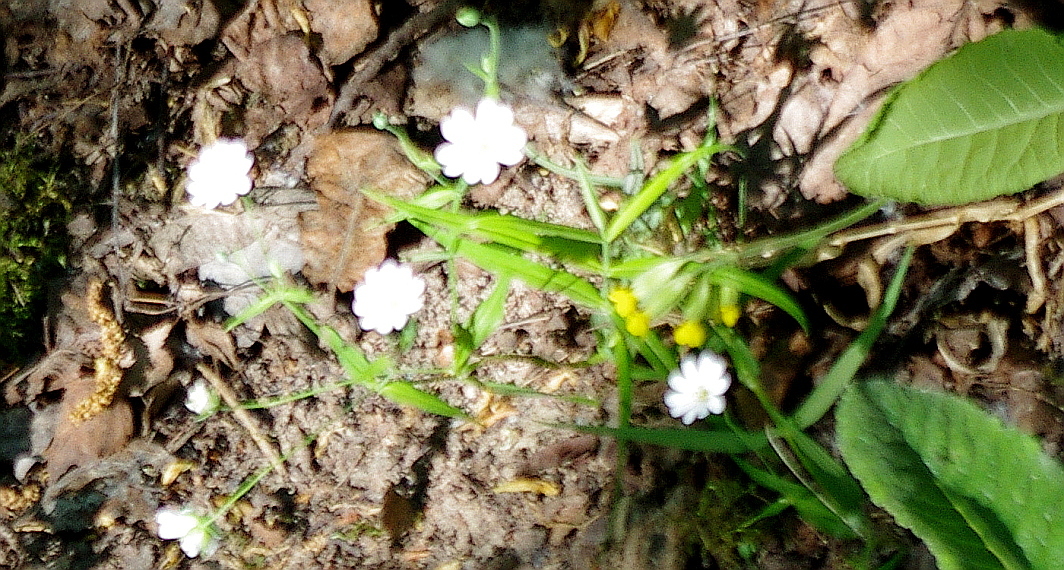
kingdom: Plantae
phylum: Tracheophyta
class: Magnoliopsida
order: Caryophyllales
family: Caryophyllaceae
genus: Rabelera
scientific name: Rabelera holostea
